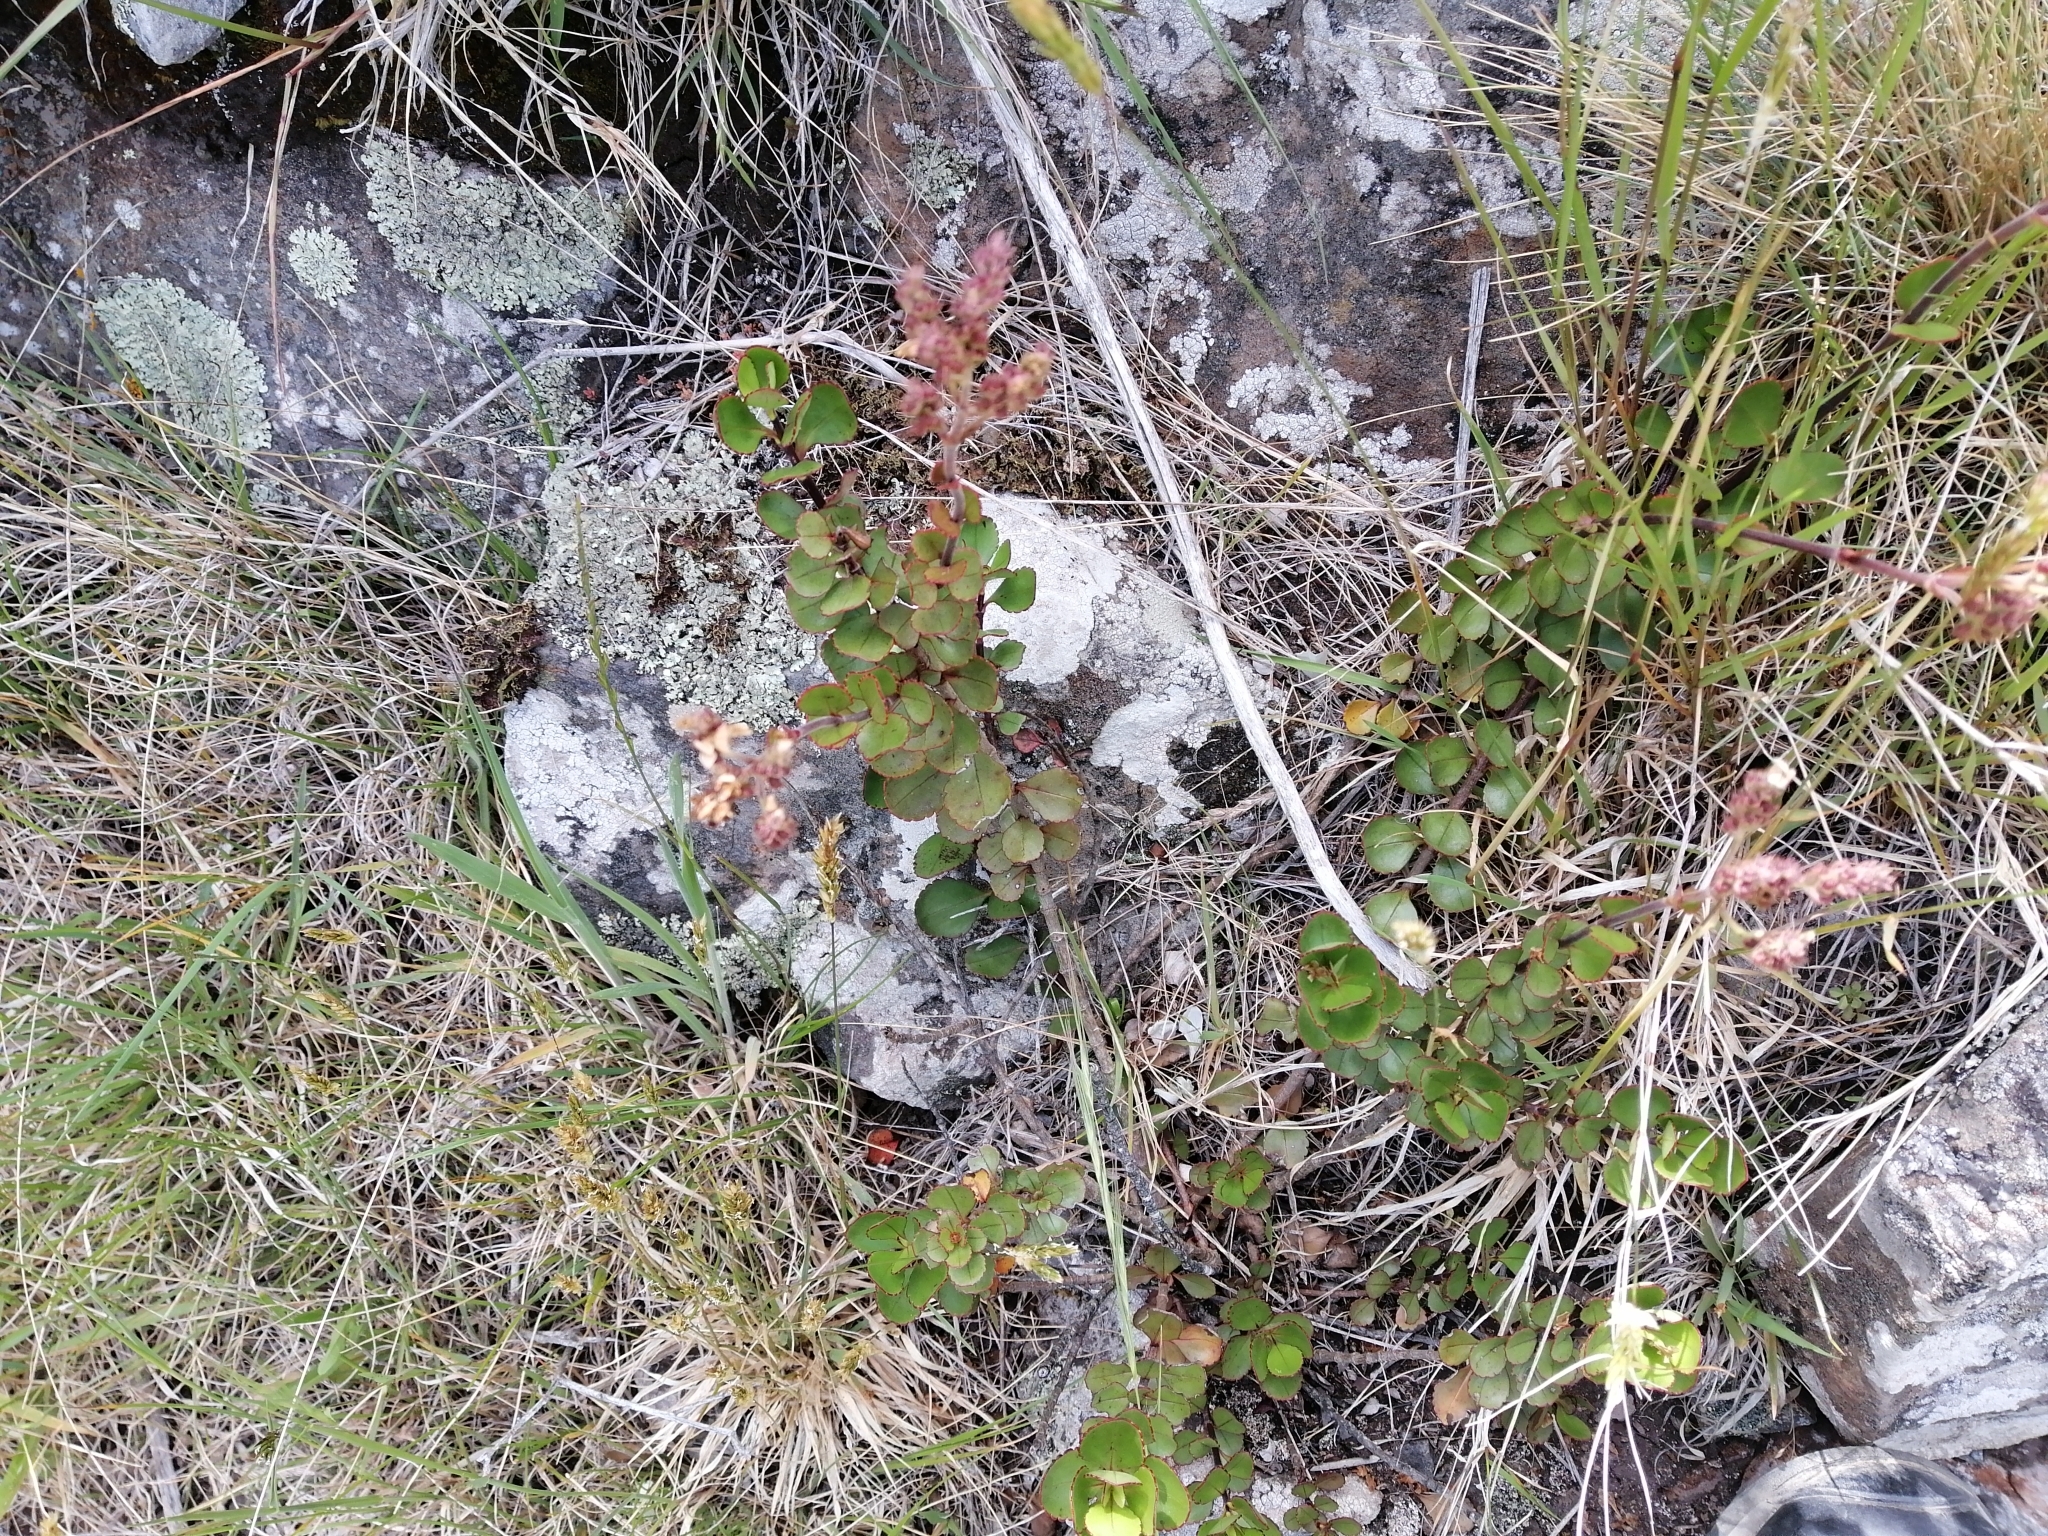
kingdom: Plantae
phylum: Tracheophyta
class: Magnoliopsida
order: Lamiales
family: Plantaginaceae
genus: Veronica
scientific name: Veronica lavaudiana
